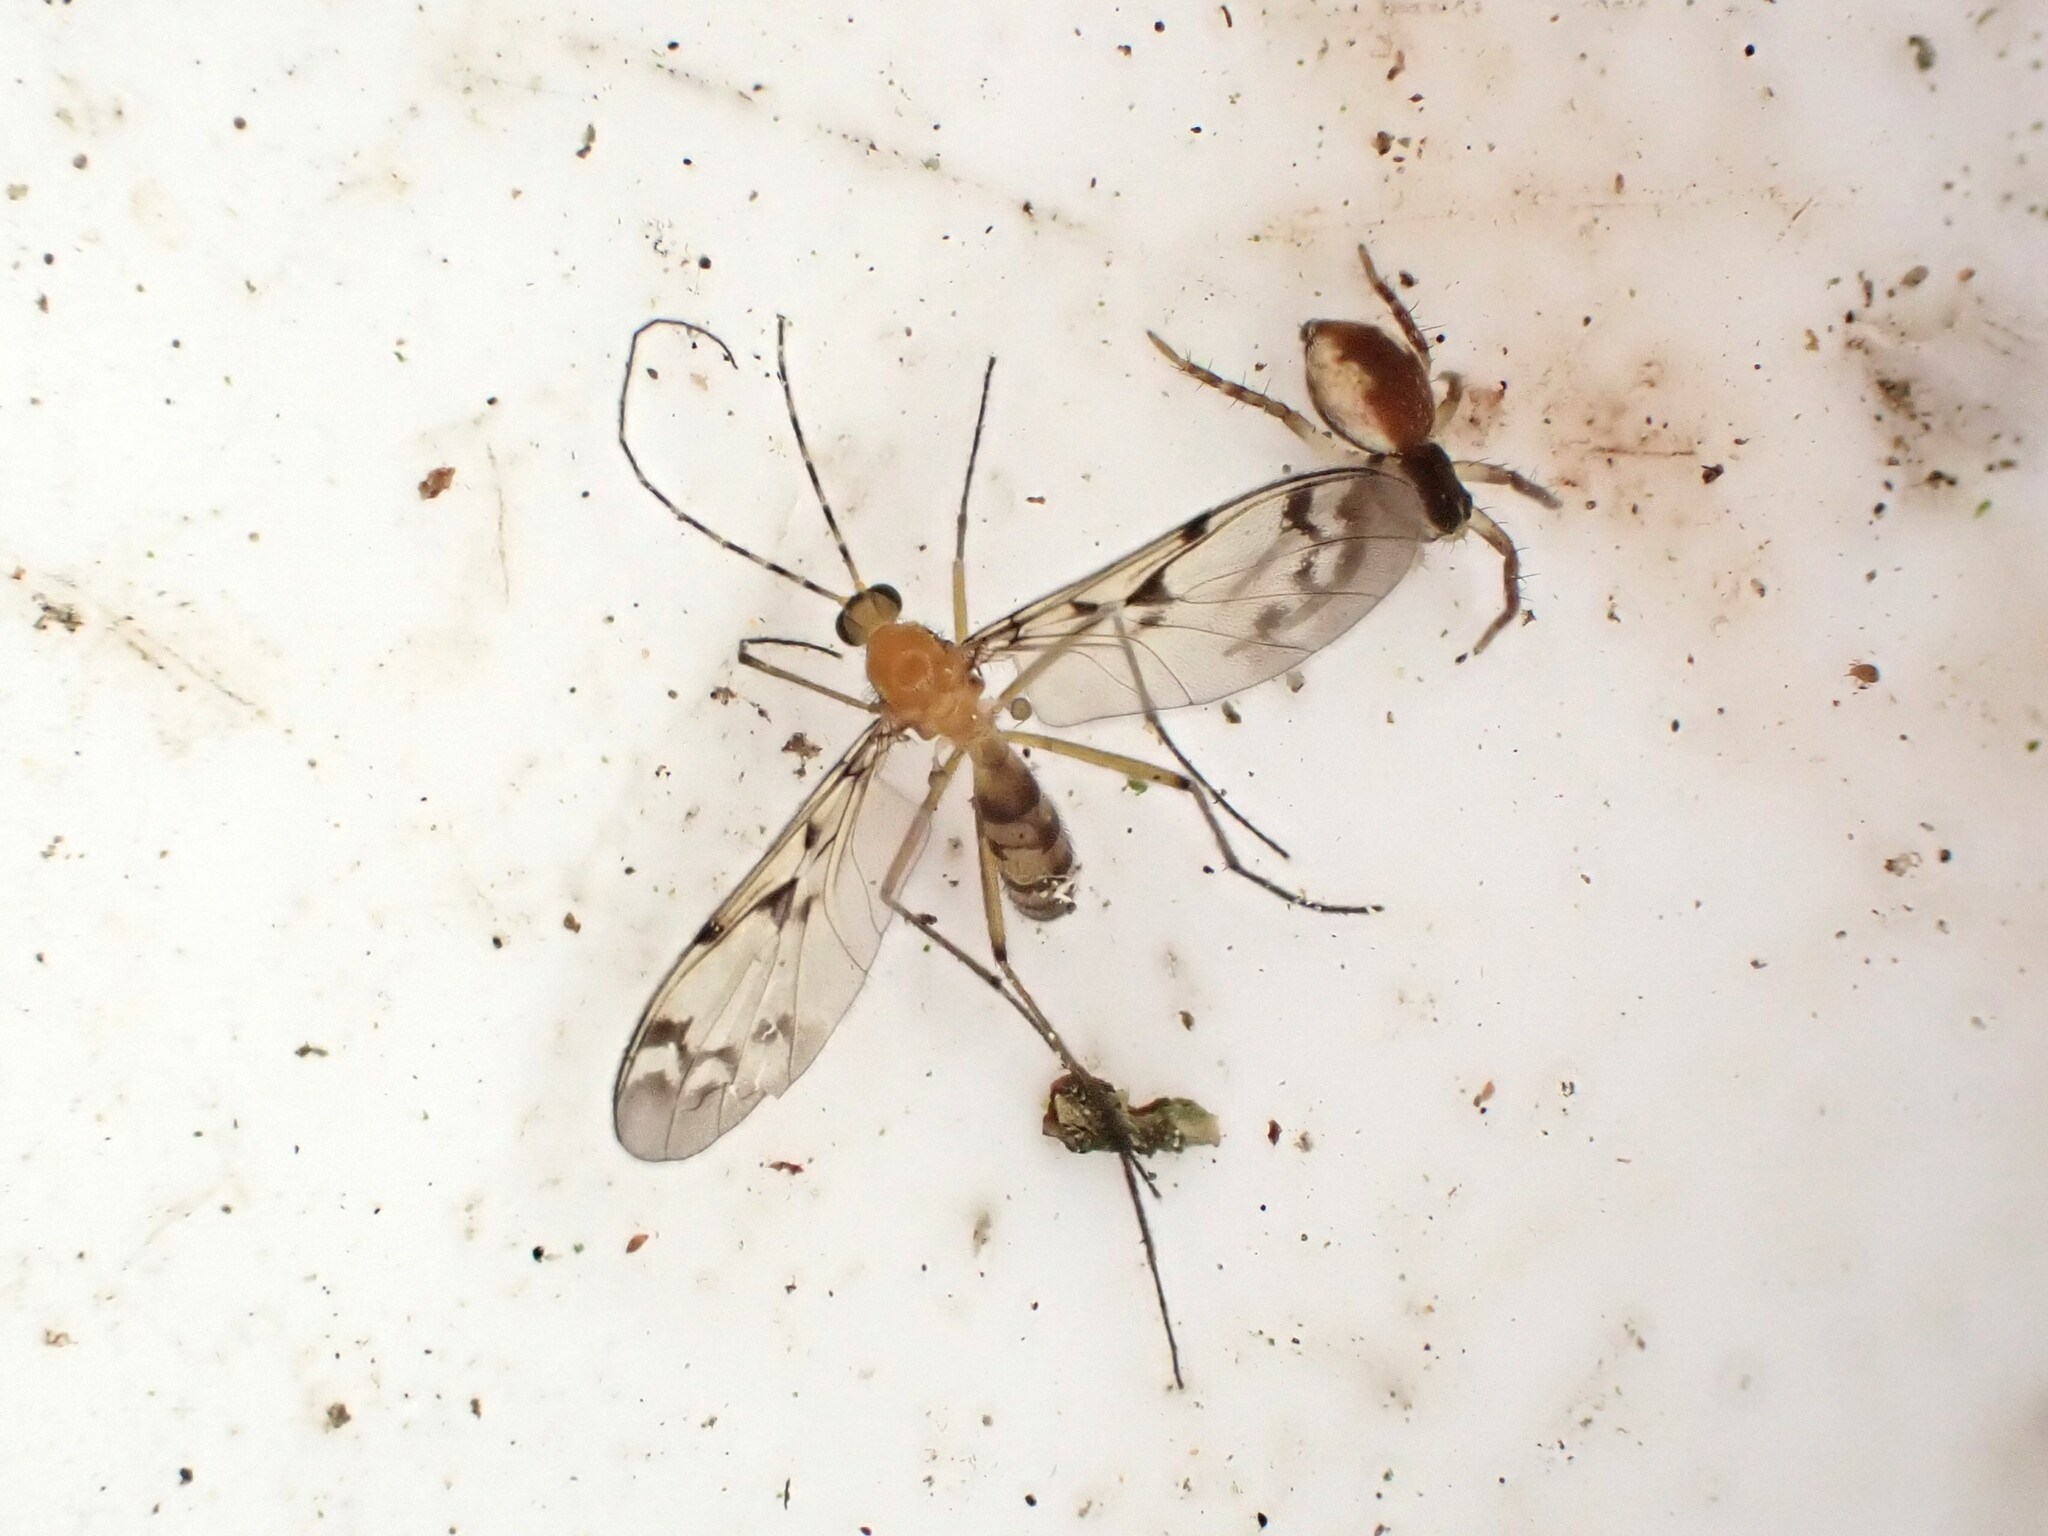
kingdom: Animalia
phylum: Arthropoda
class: Insecta
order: Diptera
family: Keroplatidae
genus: Chiasmoneura
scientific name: Chiasmoneura milligani
